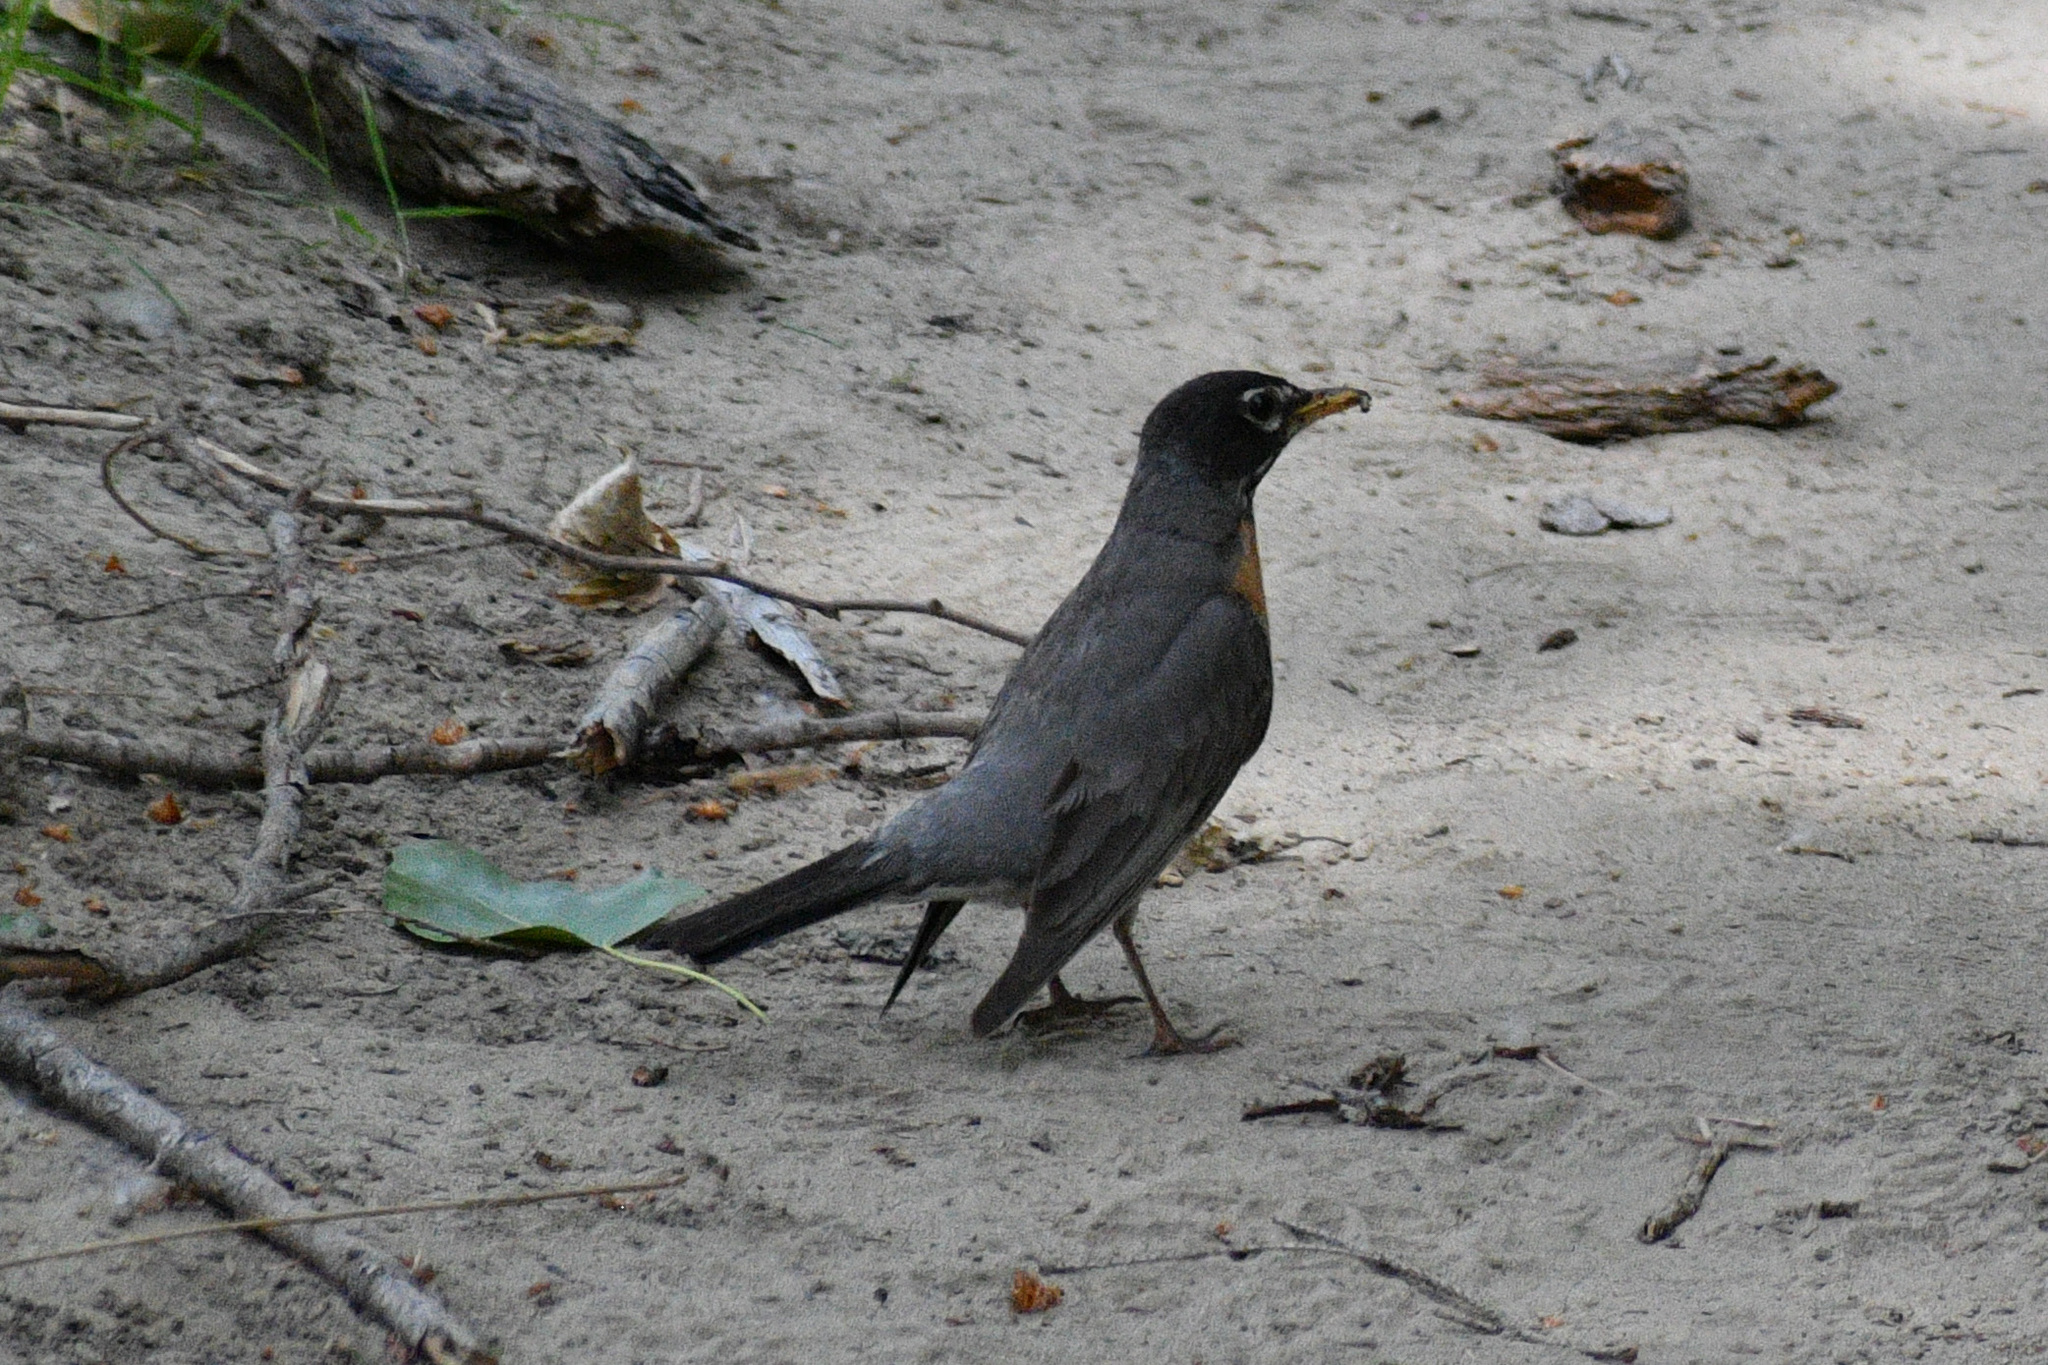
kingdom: Animalia
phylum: Chordata
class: Aves
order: Passeriformes
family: Turdidae
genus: Turdus
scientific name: Turdus migratorius
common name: American robin
